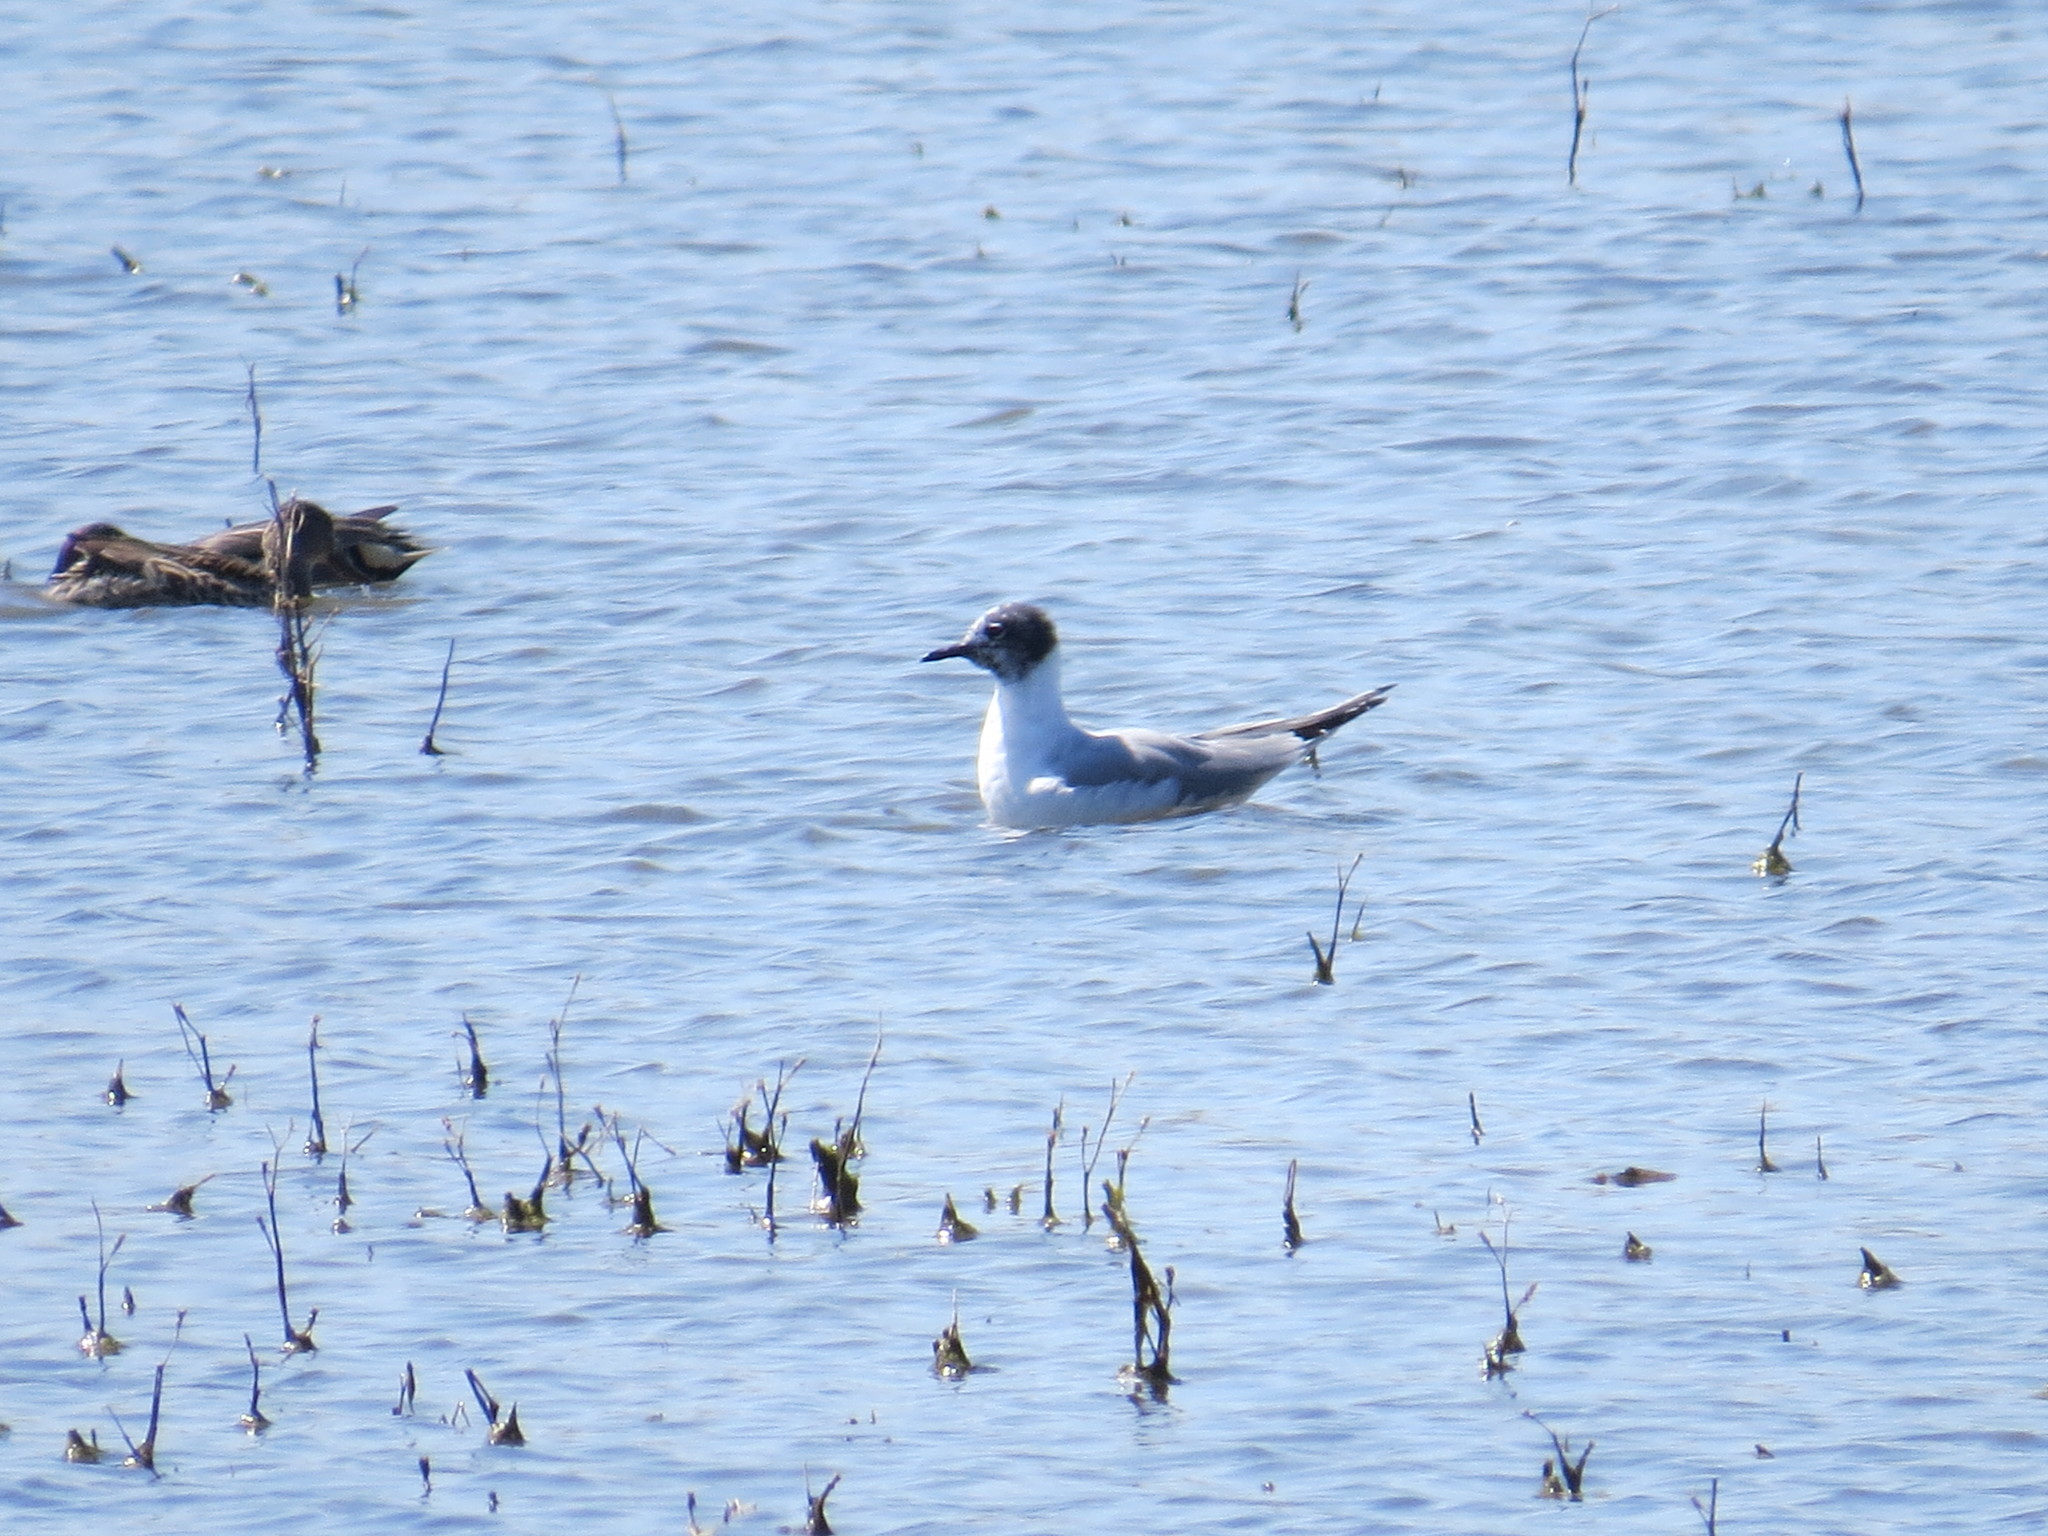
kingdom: Animalia
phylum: Chordata
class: Aves
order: Charadriiformes
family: Laridae
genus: Chroicocephalus
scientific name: Chroicocephalus philadelphia
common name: Bonaparte's gull
